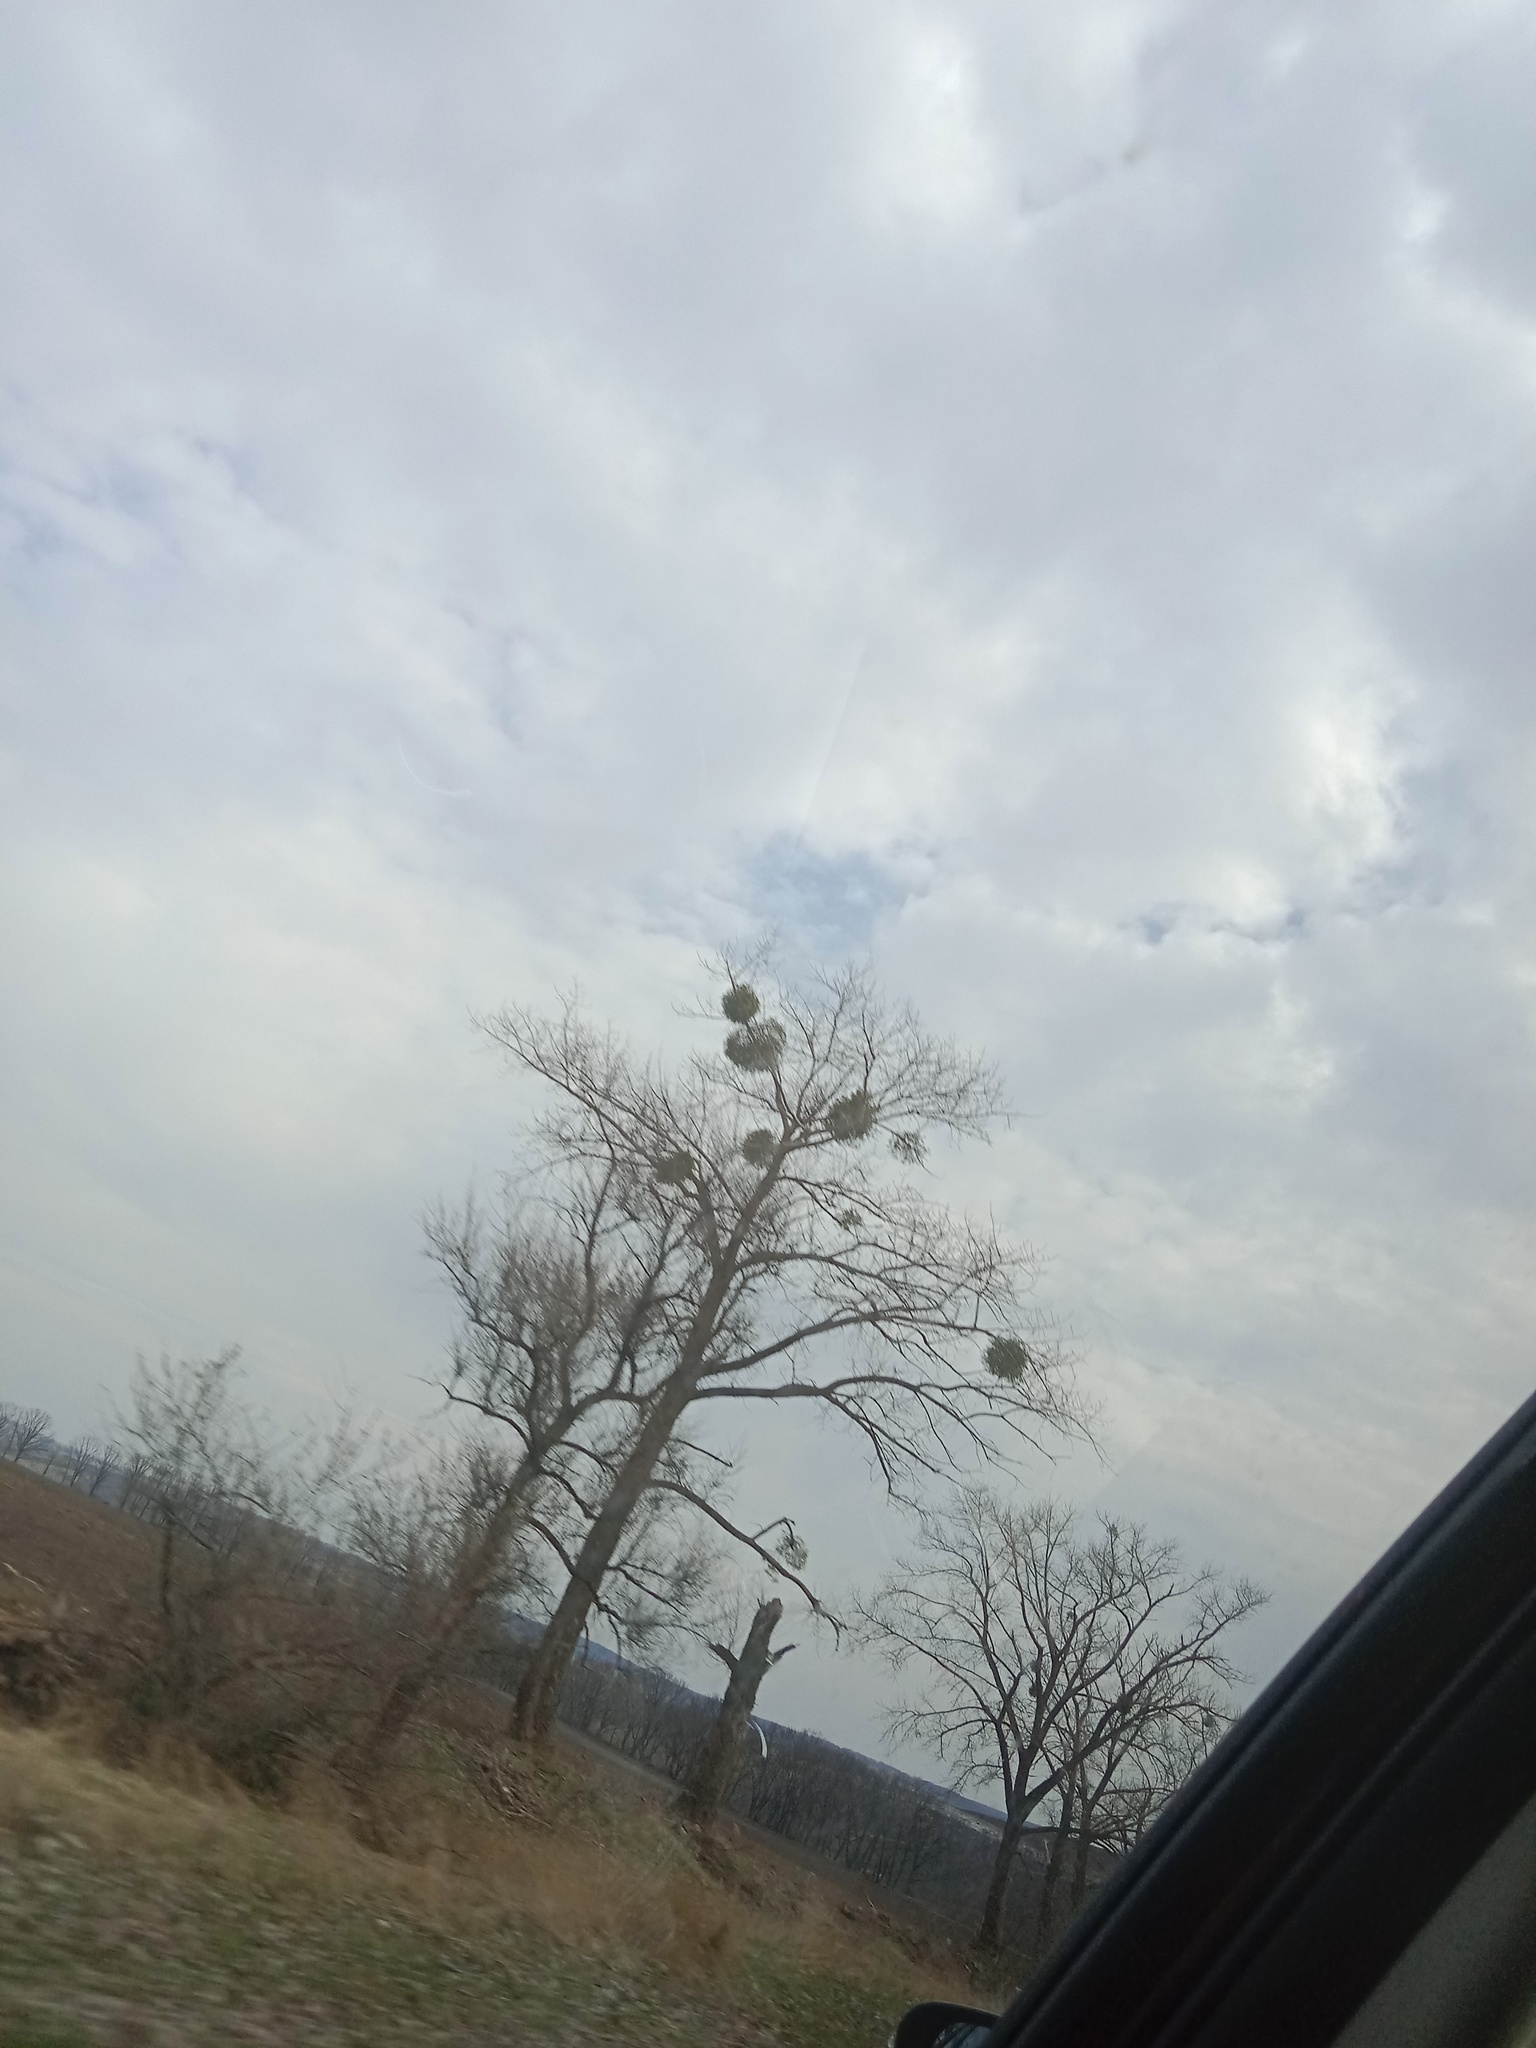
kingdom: Plantae
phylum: Tracheophyta
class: Magnoliopsida
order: Santalales
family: Viscaceae
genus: Viscum
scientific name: Viscum album
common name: Mistletoe
